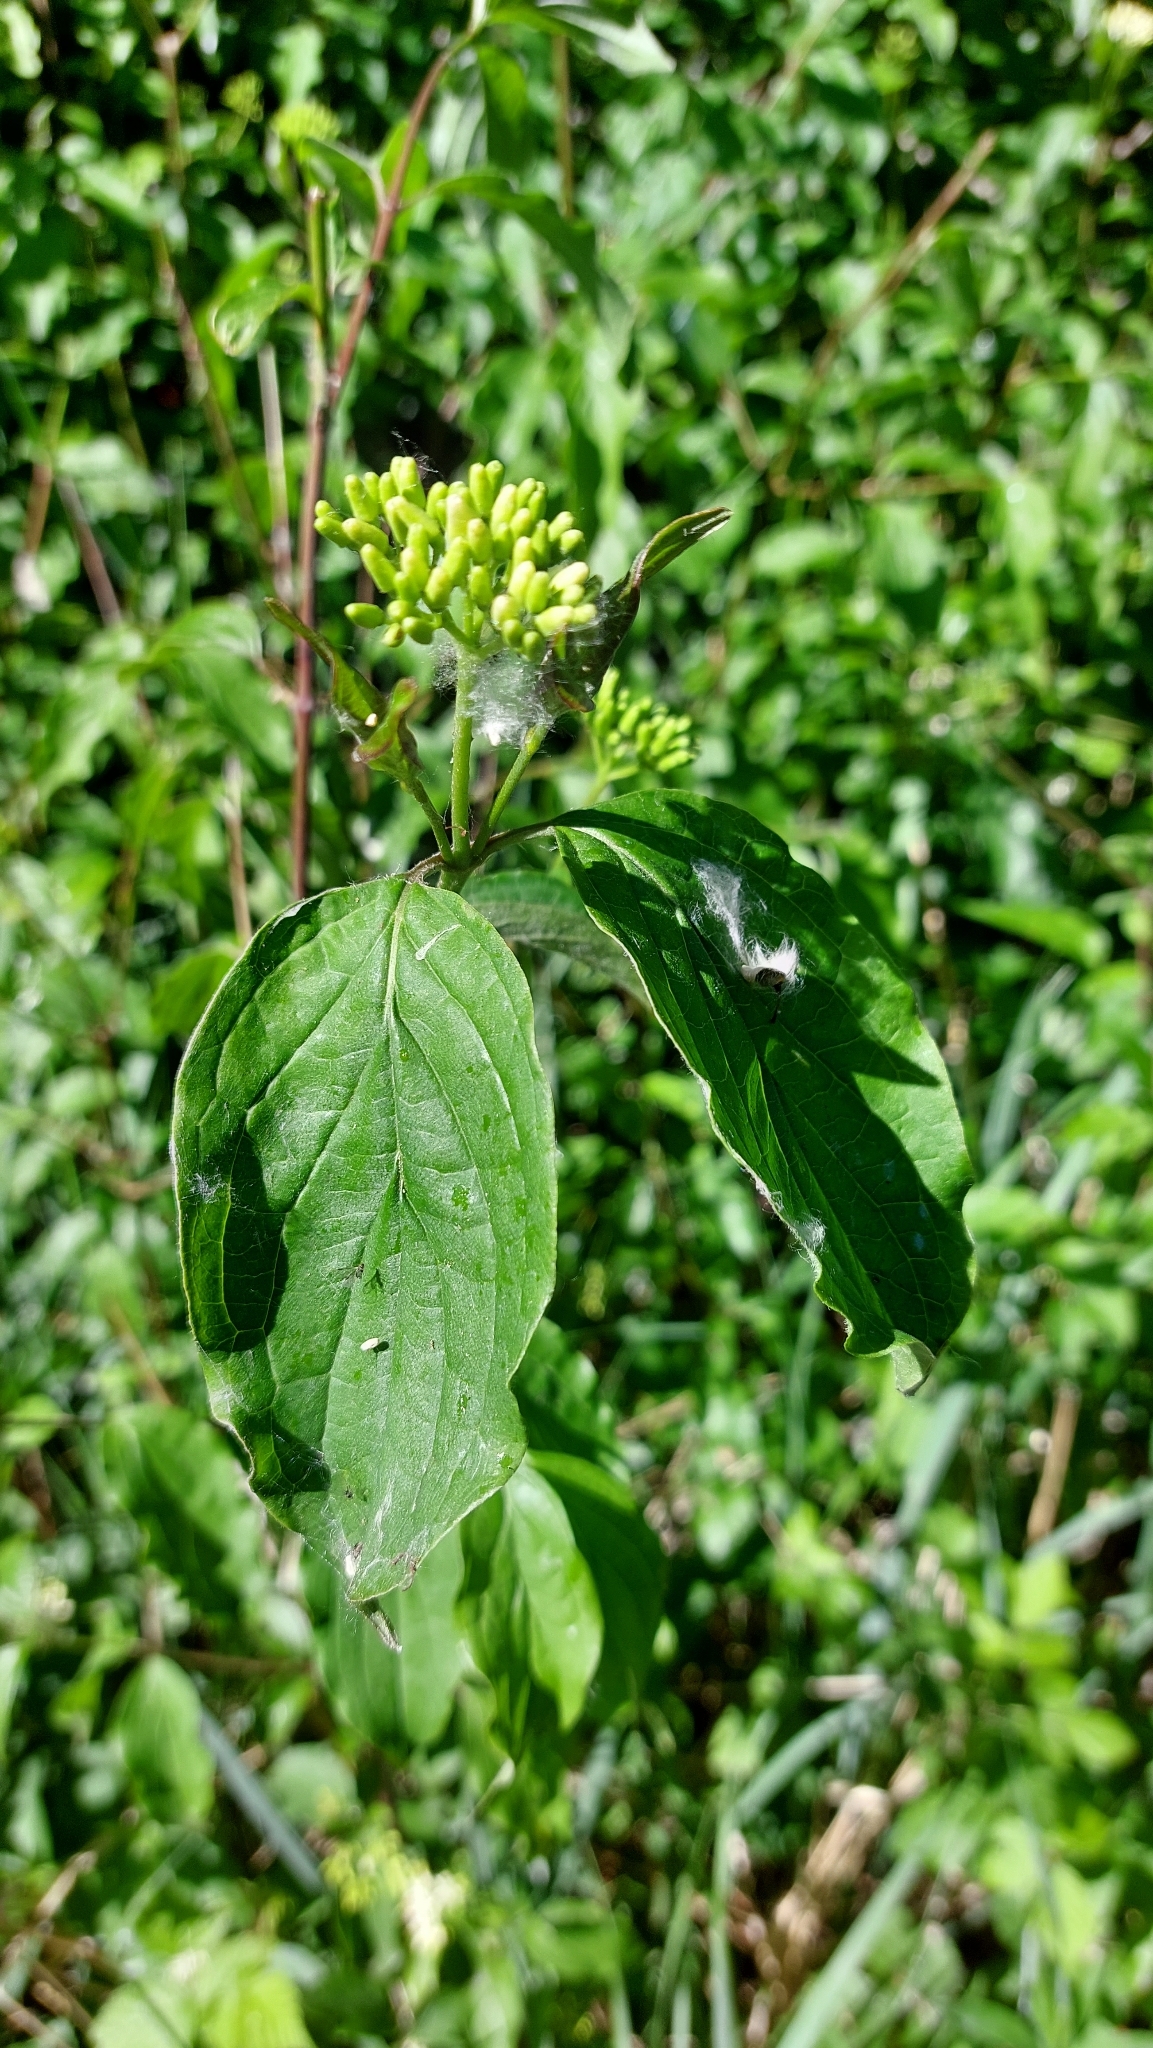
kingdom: Plantae
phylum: Tracheophyta
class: Magnoliopsida
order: Cornales
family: Cornaceae
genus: Cornus
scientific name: Cornus sanguinea
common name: Dogwood
